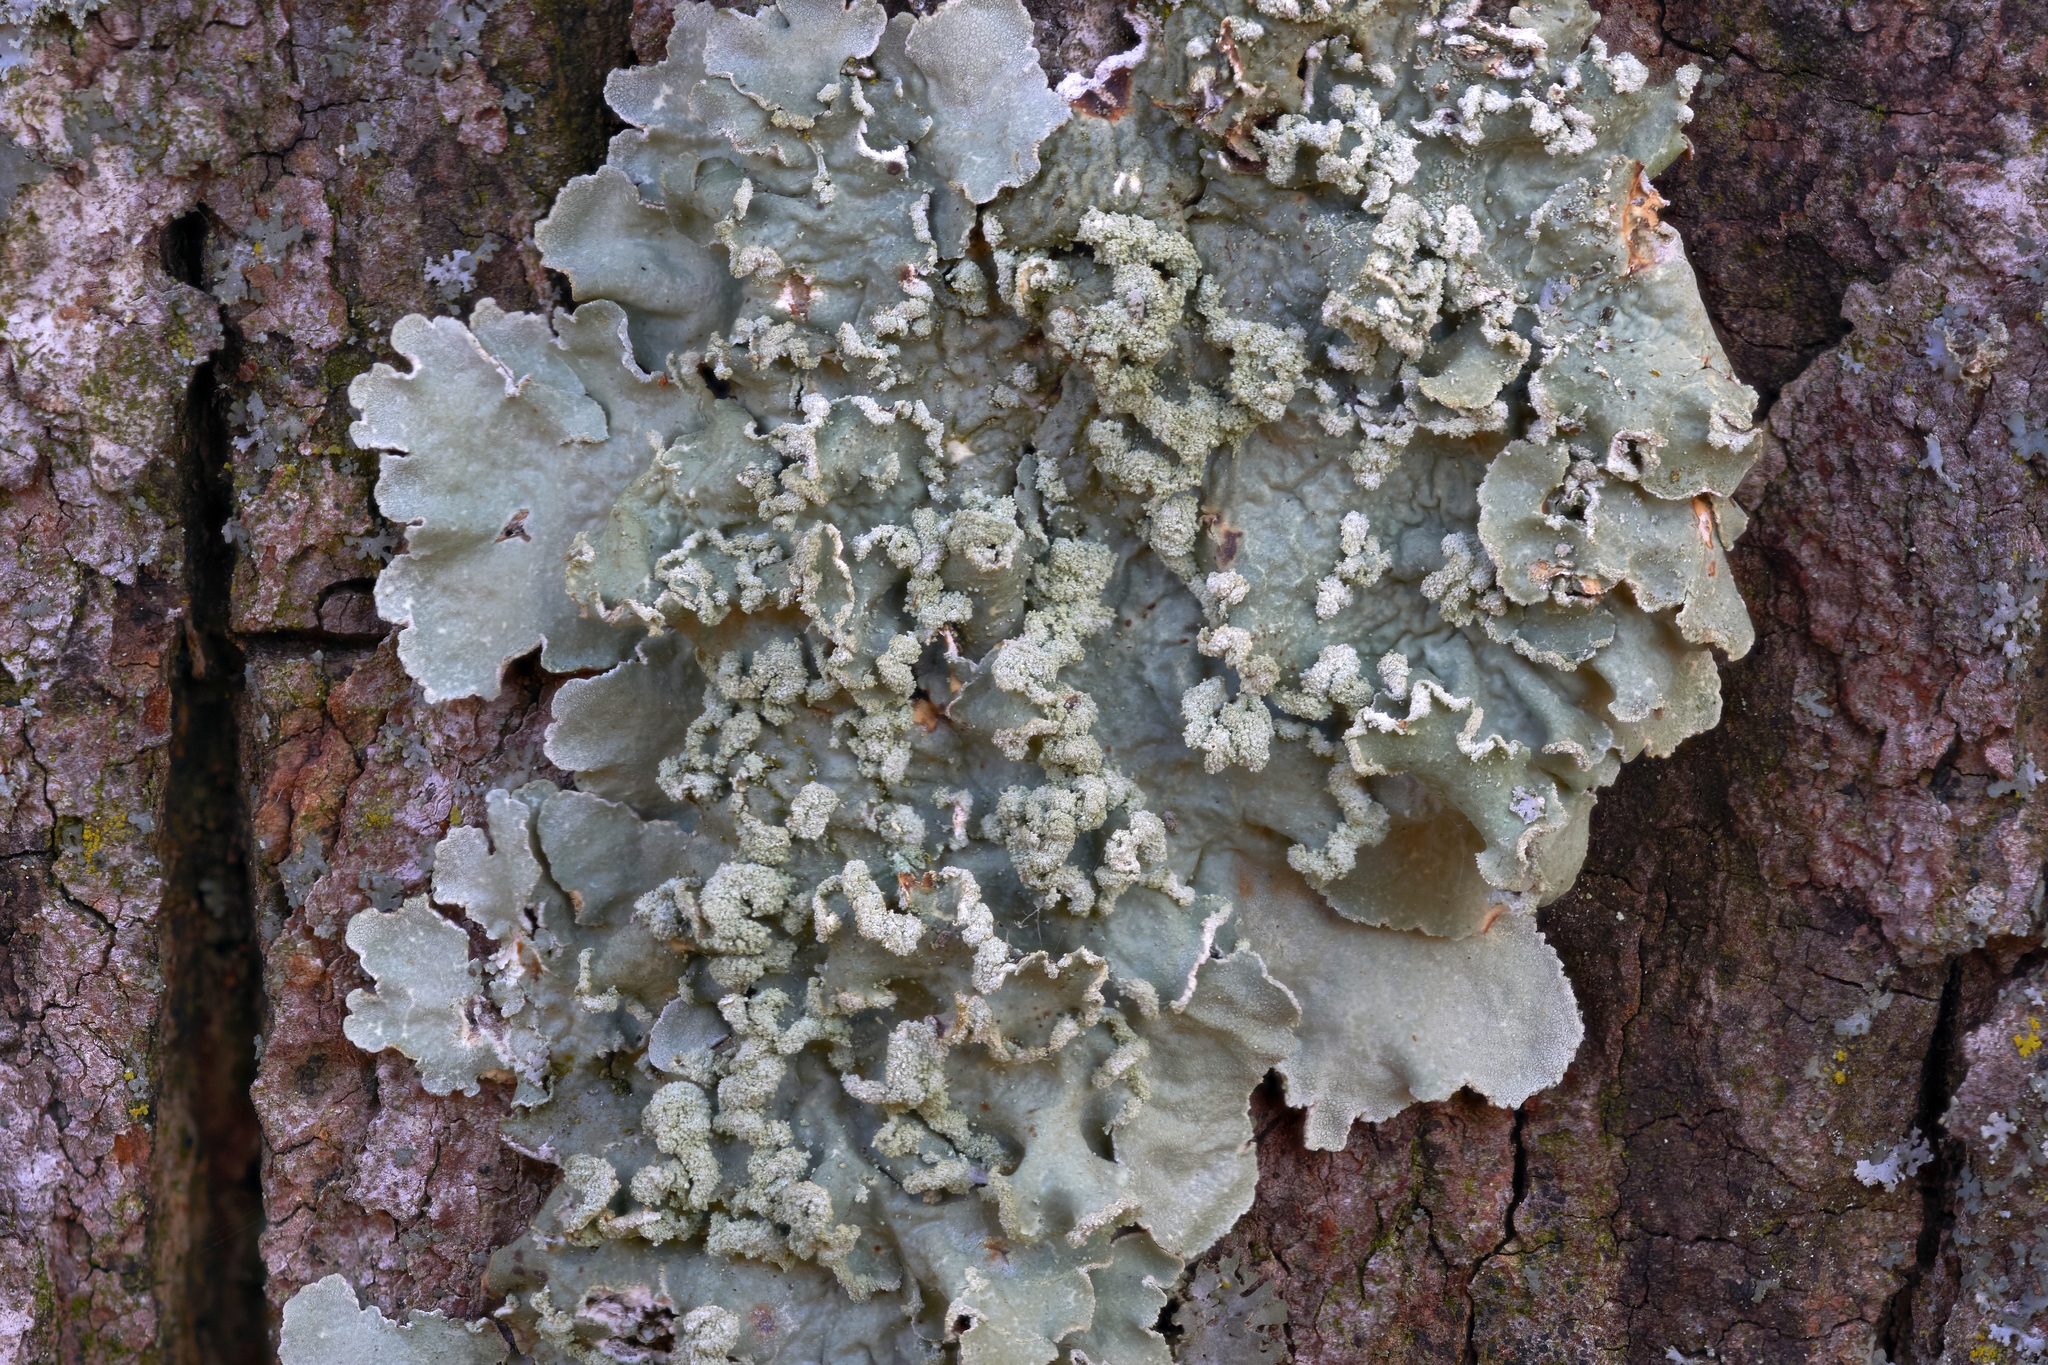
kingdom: Fungi
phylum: Ascomycota
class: Lecanoromycetes
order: Lecanorales
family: Parmeliaceae
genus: Flavopunctelia
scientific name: Flavopunctelia soredica
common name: Powder-edged speckled greenshield
